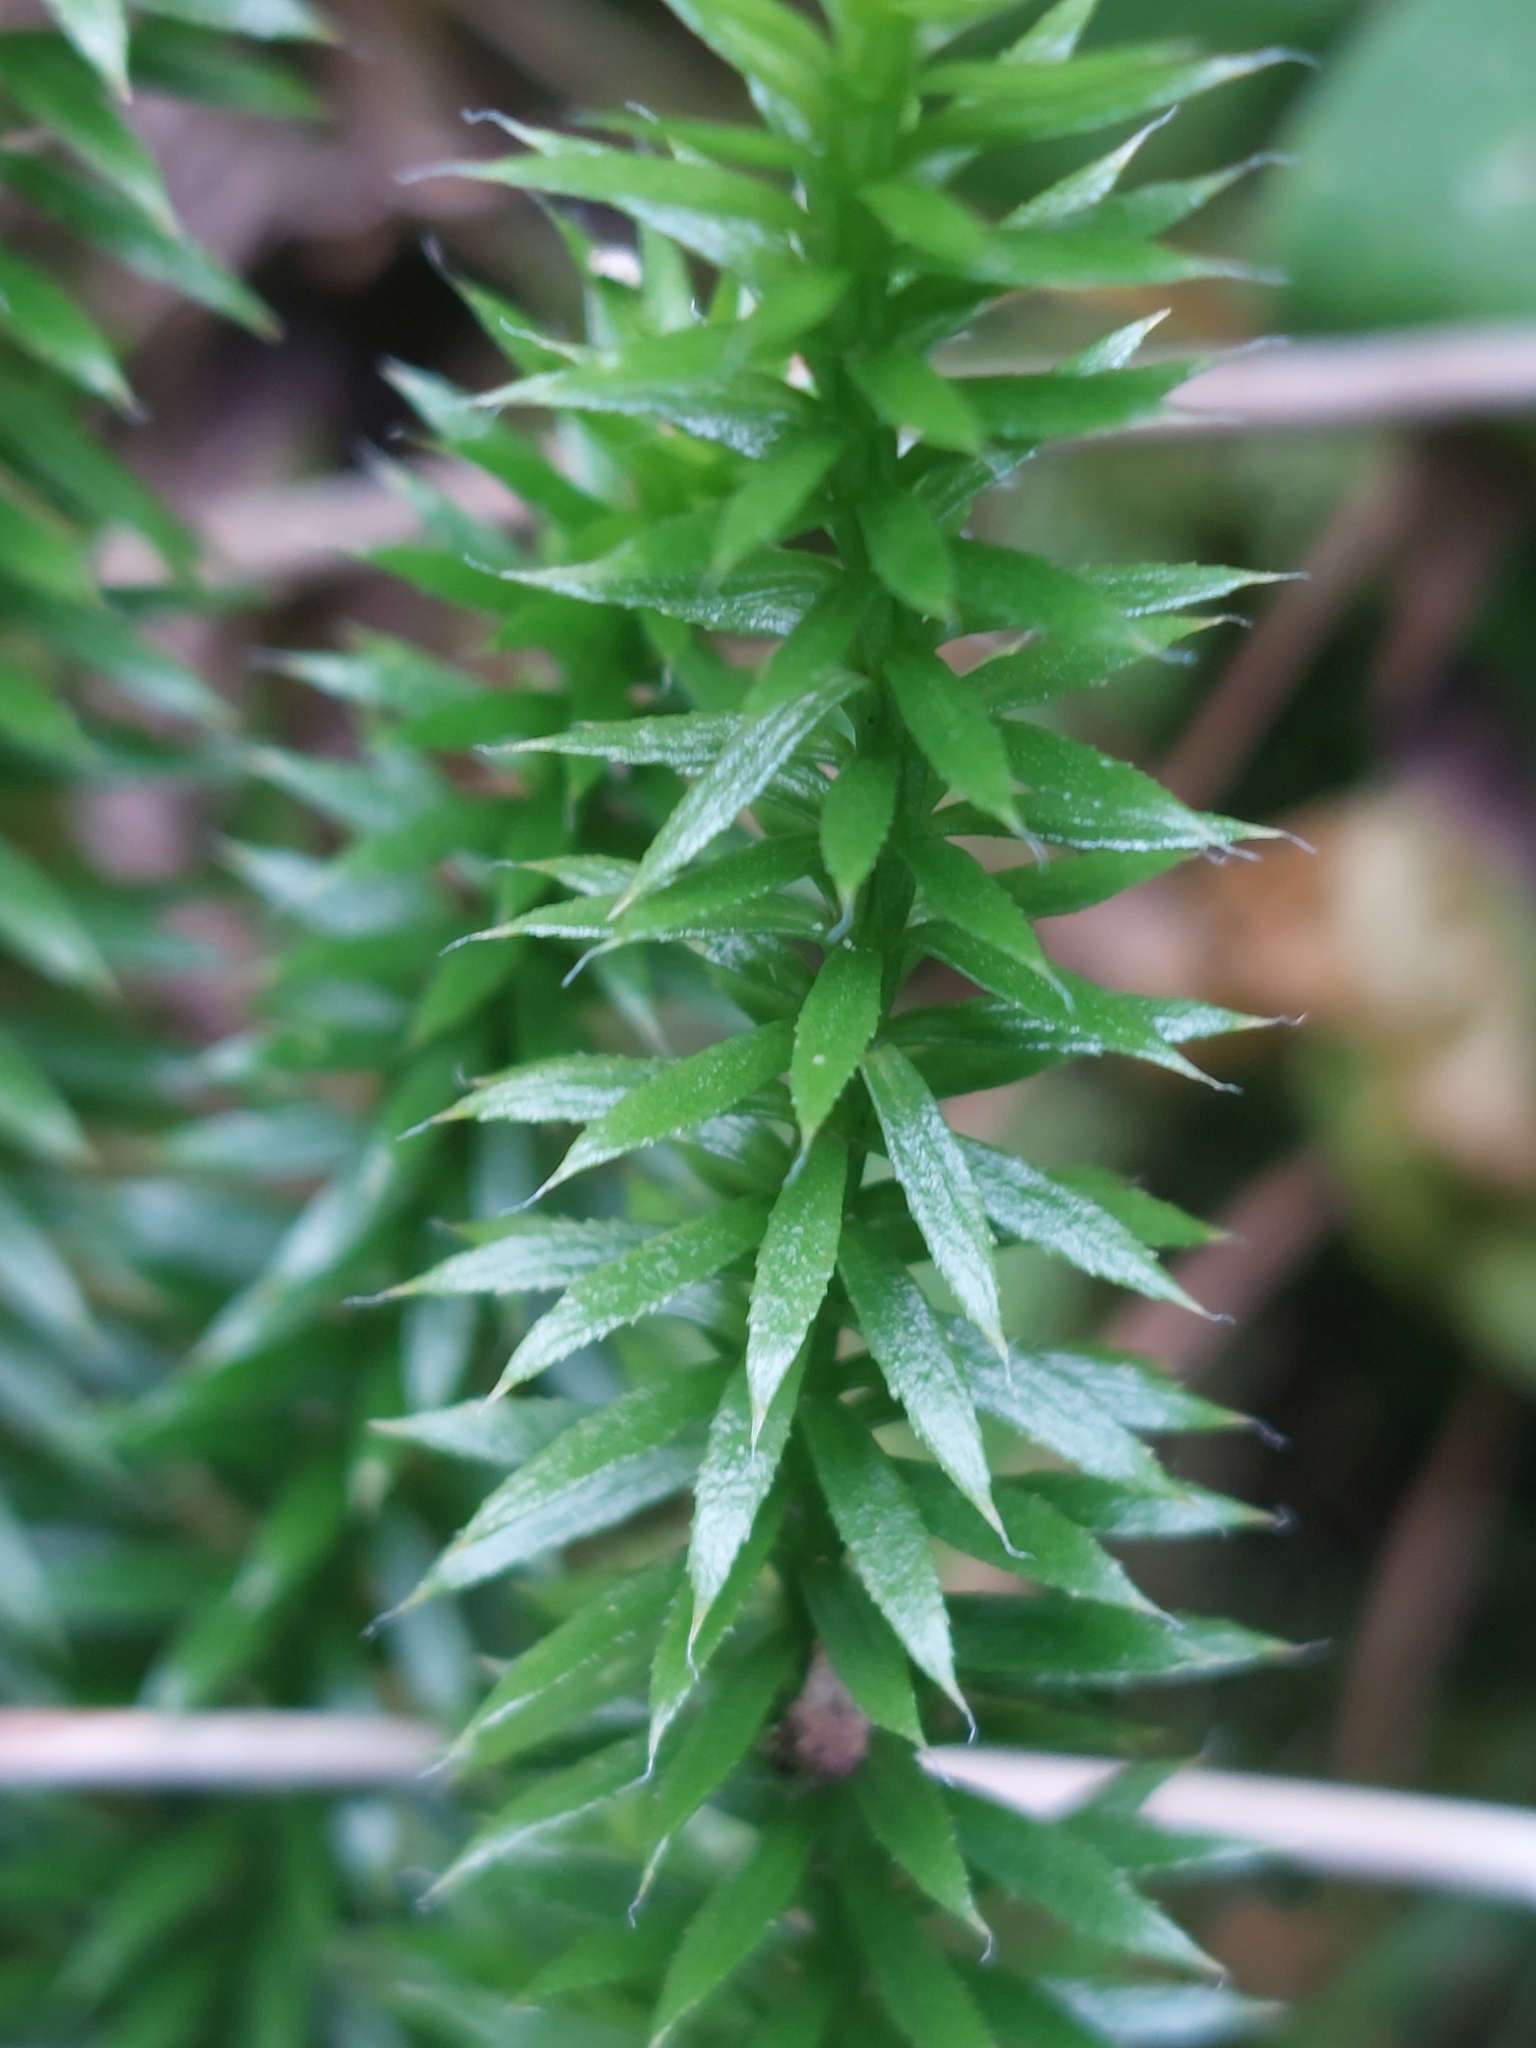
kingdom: Plantae
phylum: Tracheophyta
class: Lycopodiopsida
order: Lycopodiales
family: Lycopodiaceae
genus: Spinulum
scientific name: Spinulum annotinum
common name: Interrupted club-moss
